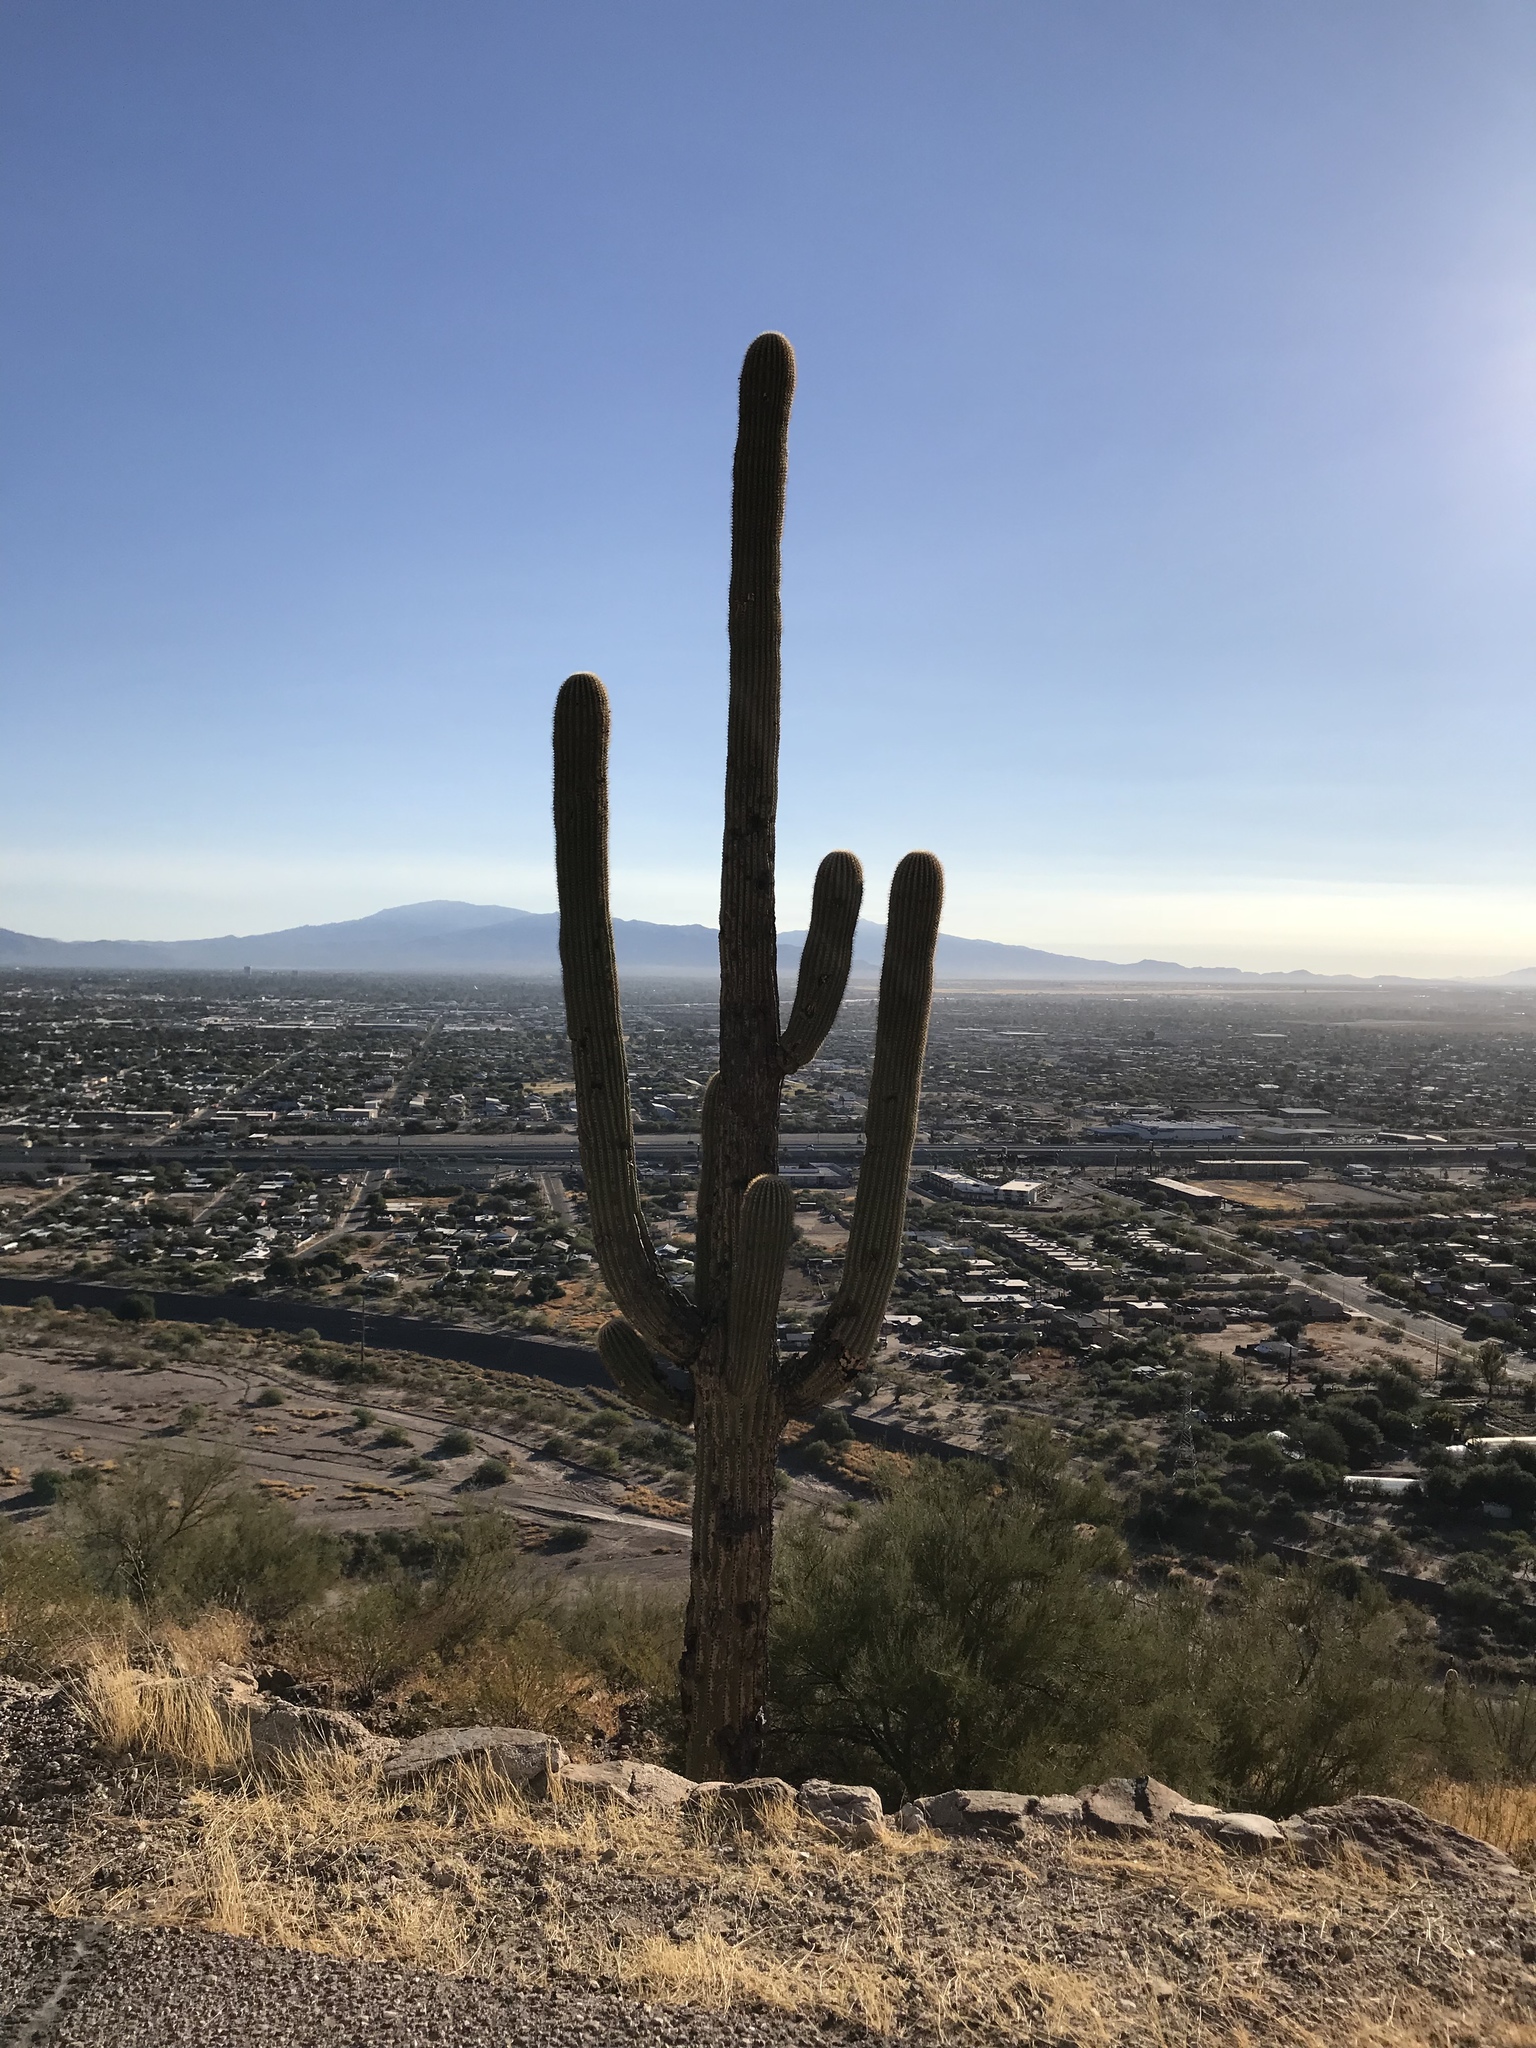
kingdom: Plantae
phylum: Tracheophyta
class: Magnoliopsida
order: Caryophyllales
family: Cactaceae
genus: Carnegiea
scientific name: Carnegiea gigantea
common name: Saguaro
